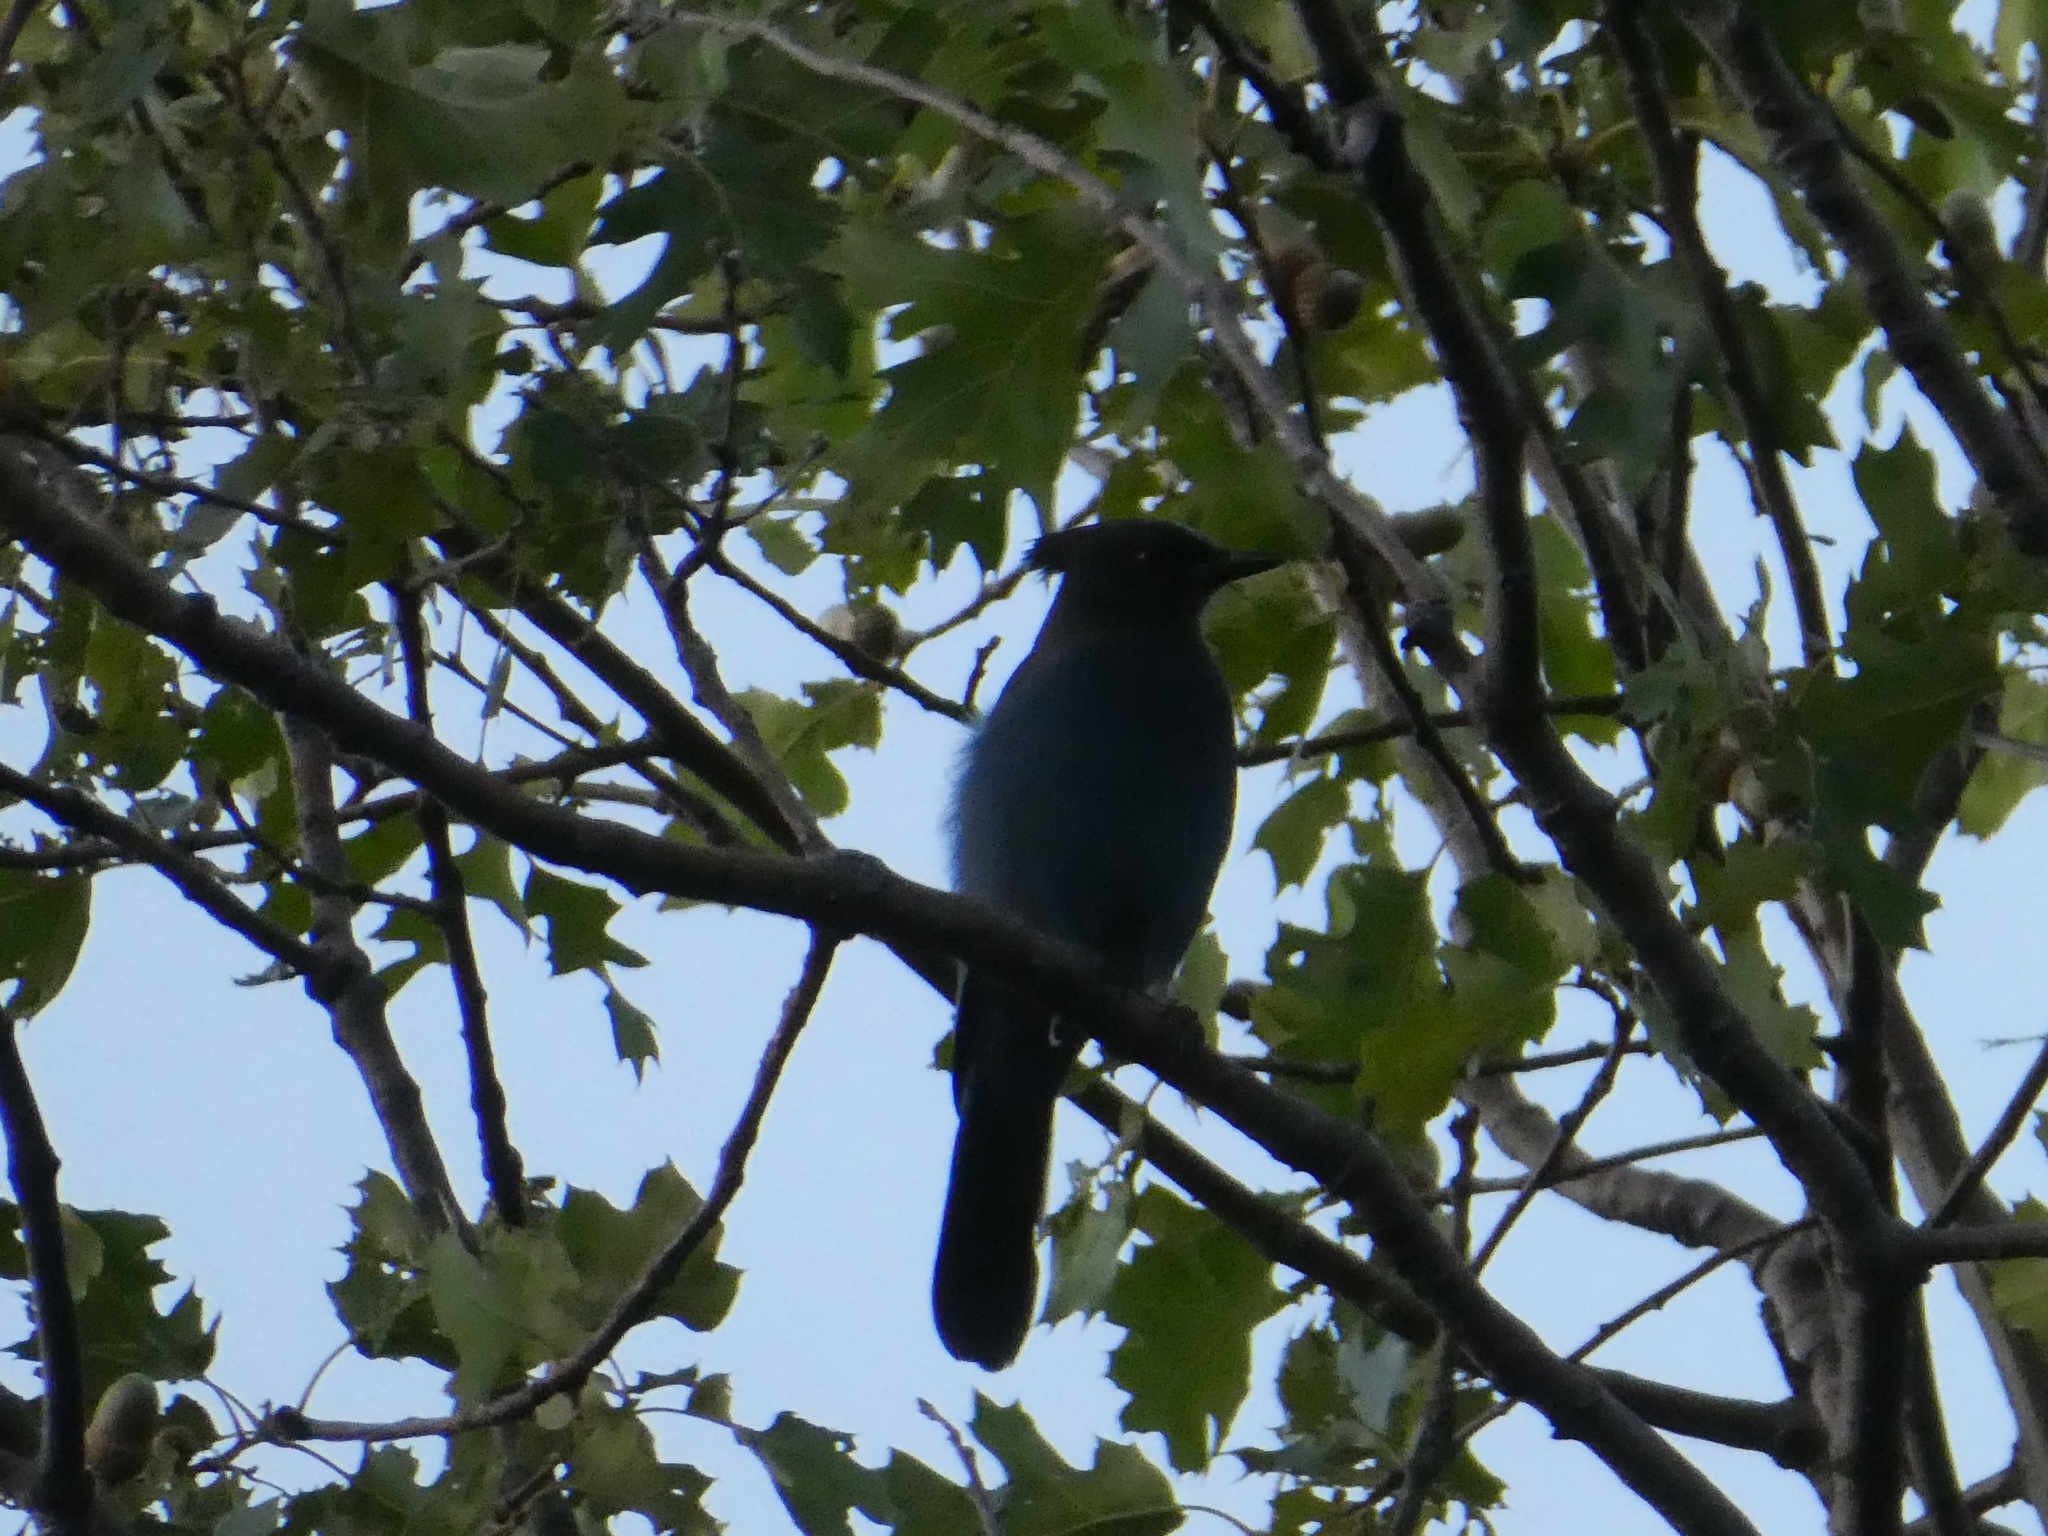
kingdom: Animalia
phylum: Chordata
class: Aves
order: Passeriformes
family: Corvidae
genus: Cyanocitta
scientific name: Cyanocitta stelleri
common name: Steller's jay
